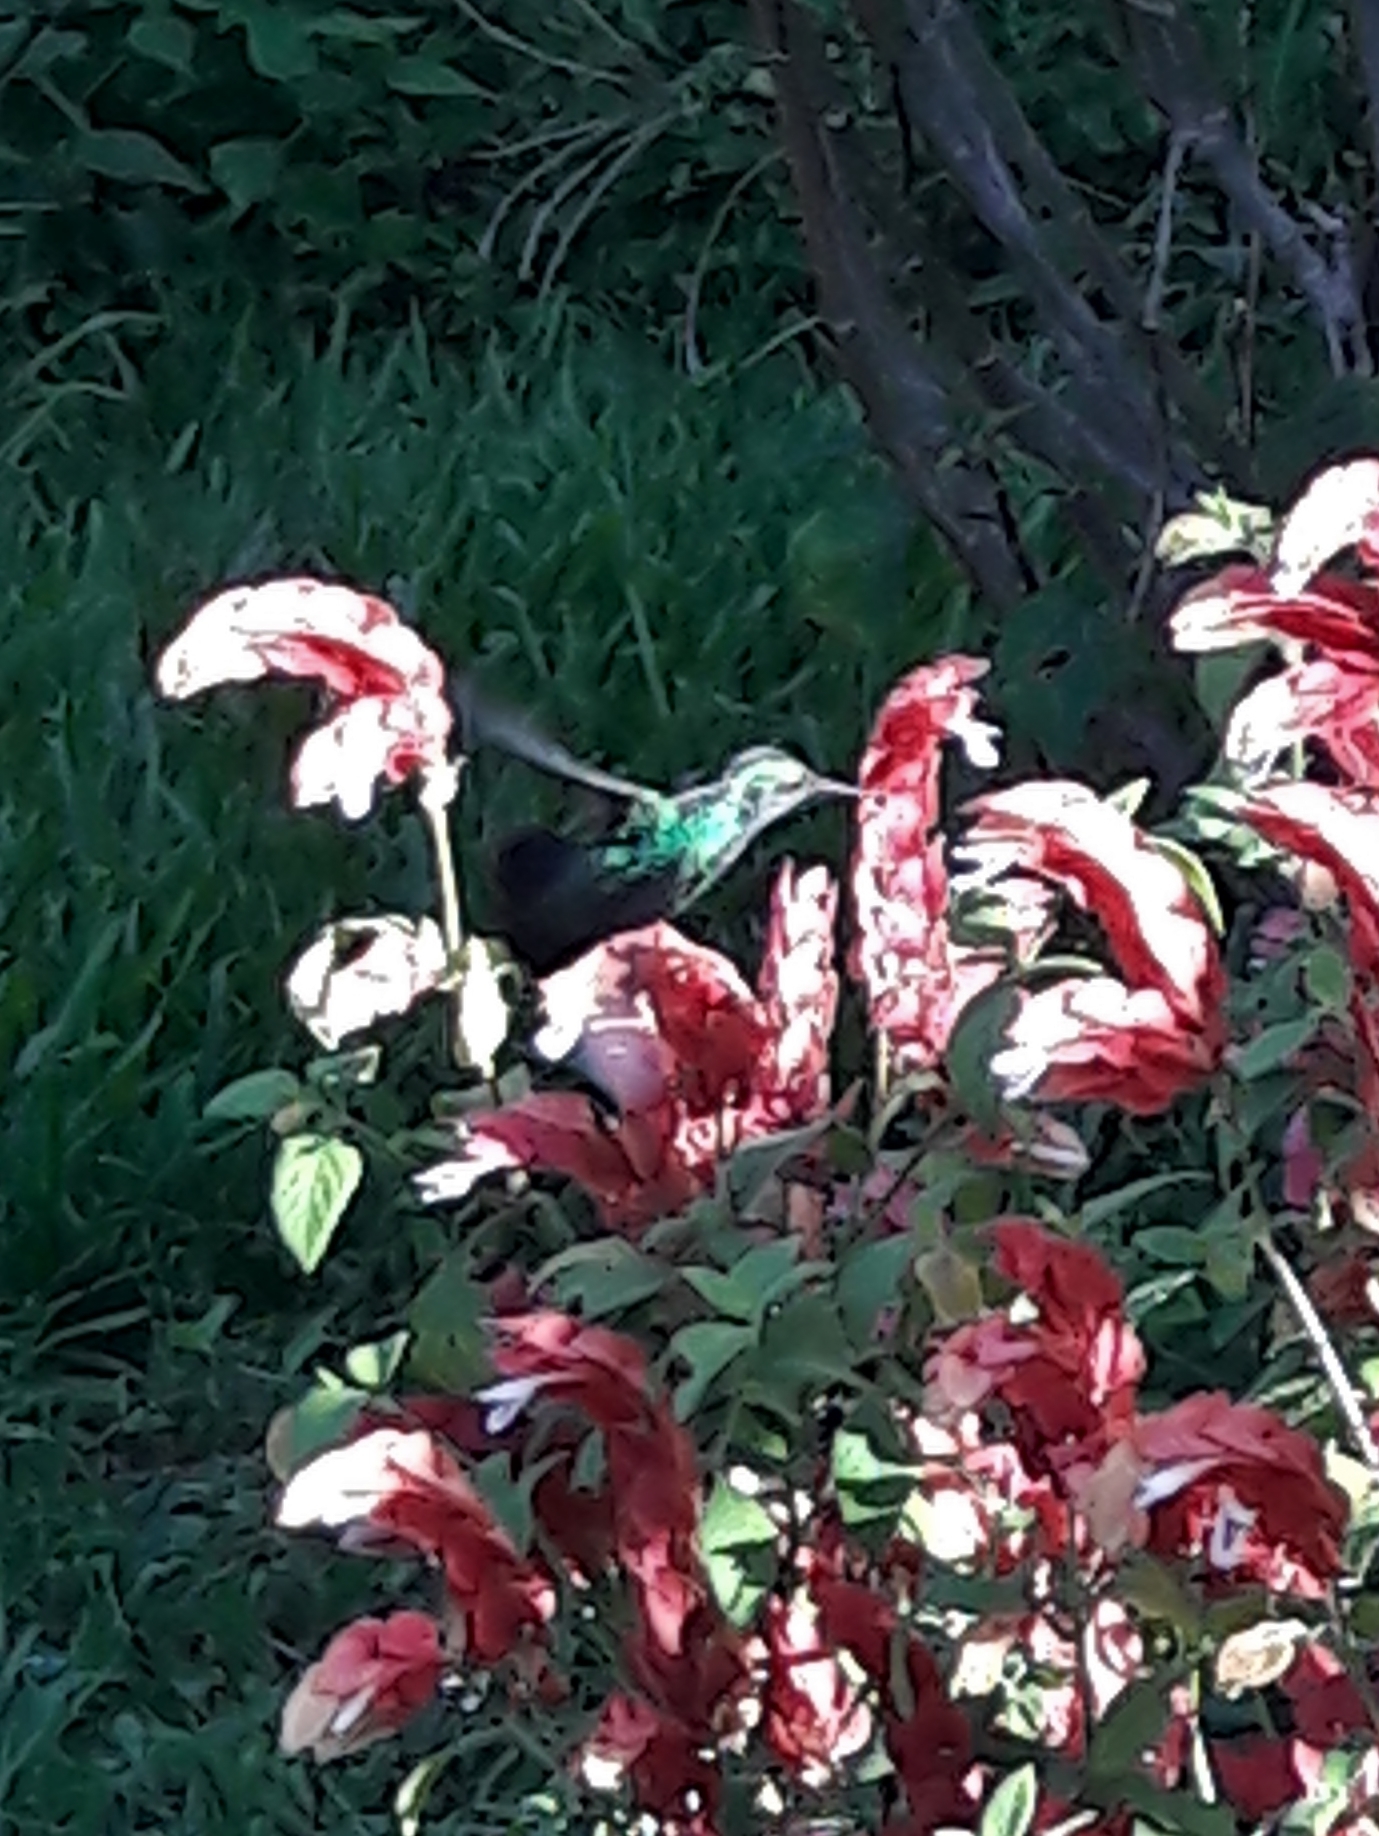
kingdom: Animalia
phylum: Chordata
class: Aves
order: Apodiformes
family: Trochilidae
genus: Chionomesa
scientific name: Chionomesa fimbriata
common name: Glittering-throated emerald
